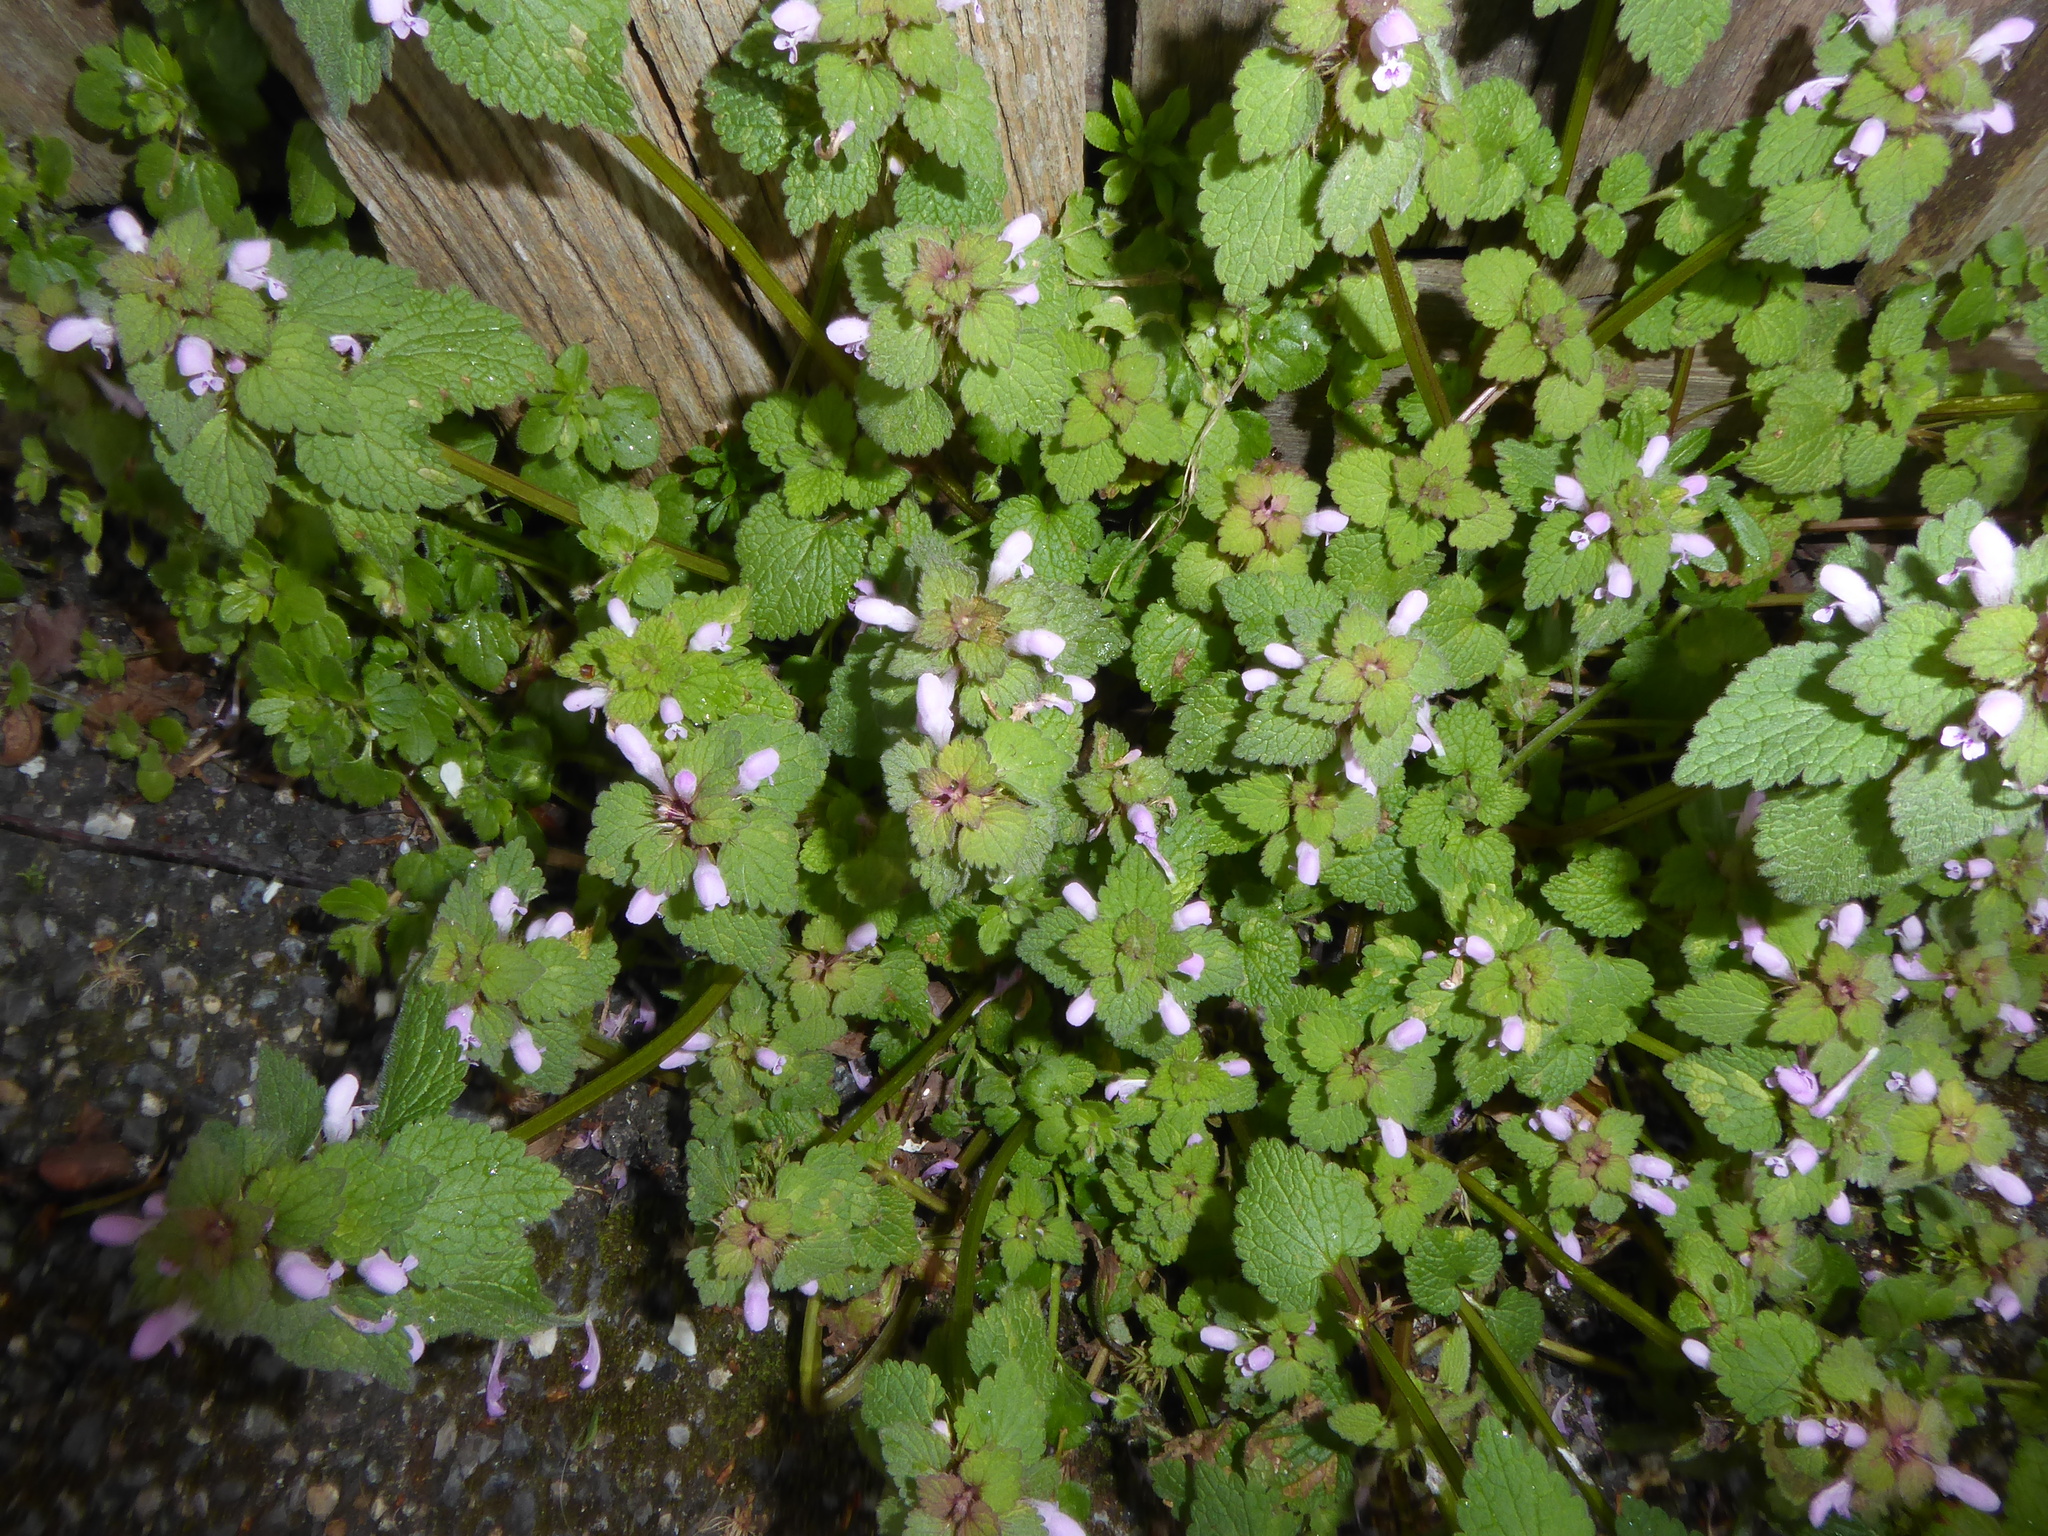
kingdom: Plantae
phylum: Tracheophyta
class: Magnoliopsida
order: Lamiales
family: Lamiaceae
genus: Lamium
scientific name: Lamium purpureum
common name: Red dead-nettle
